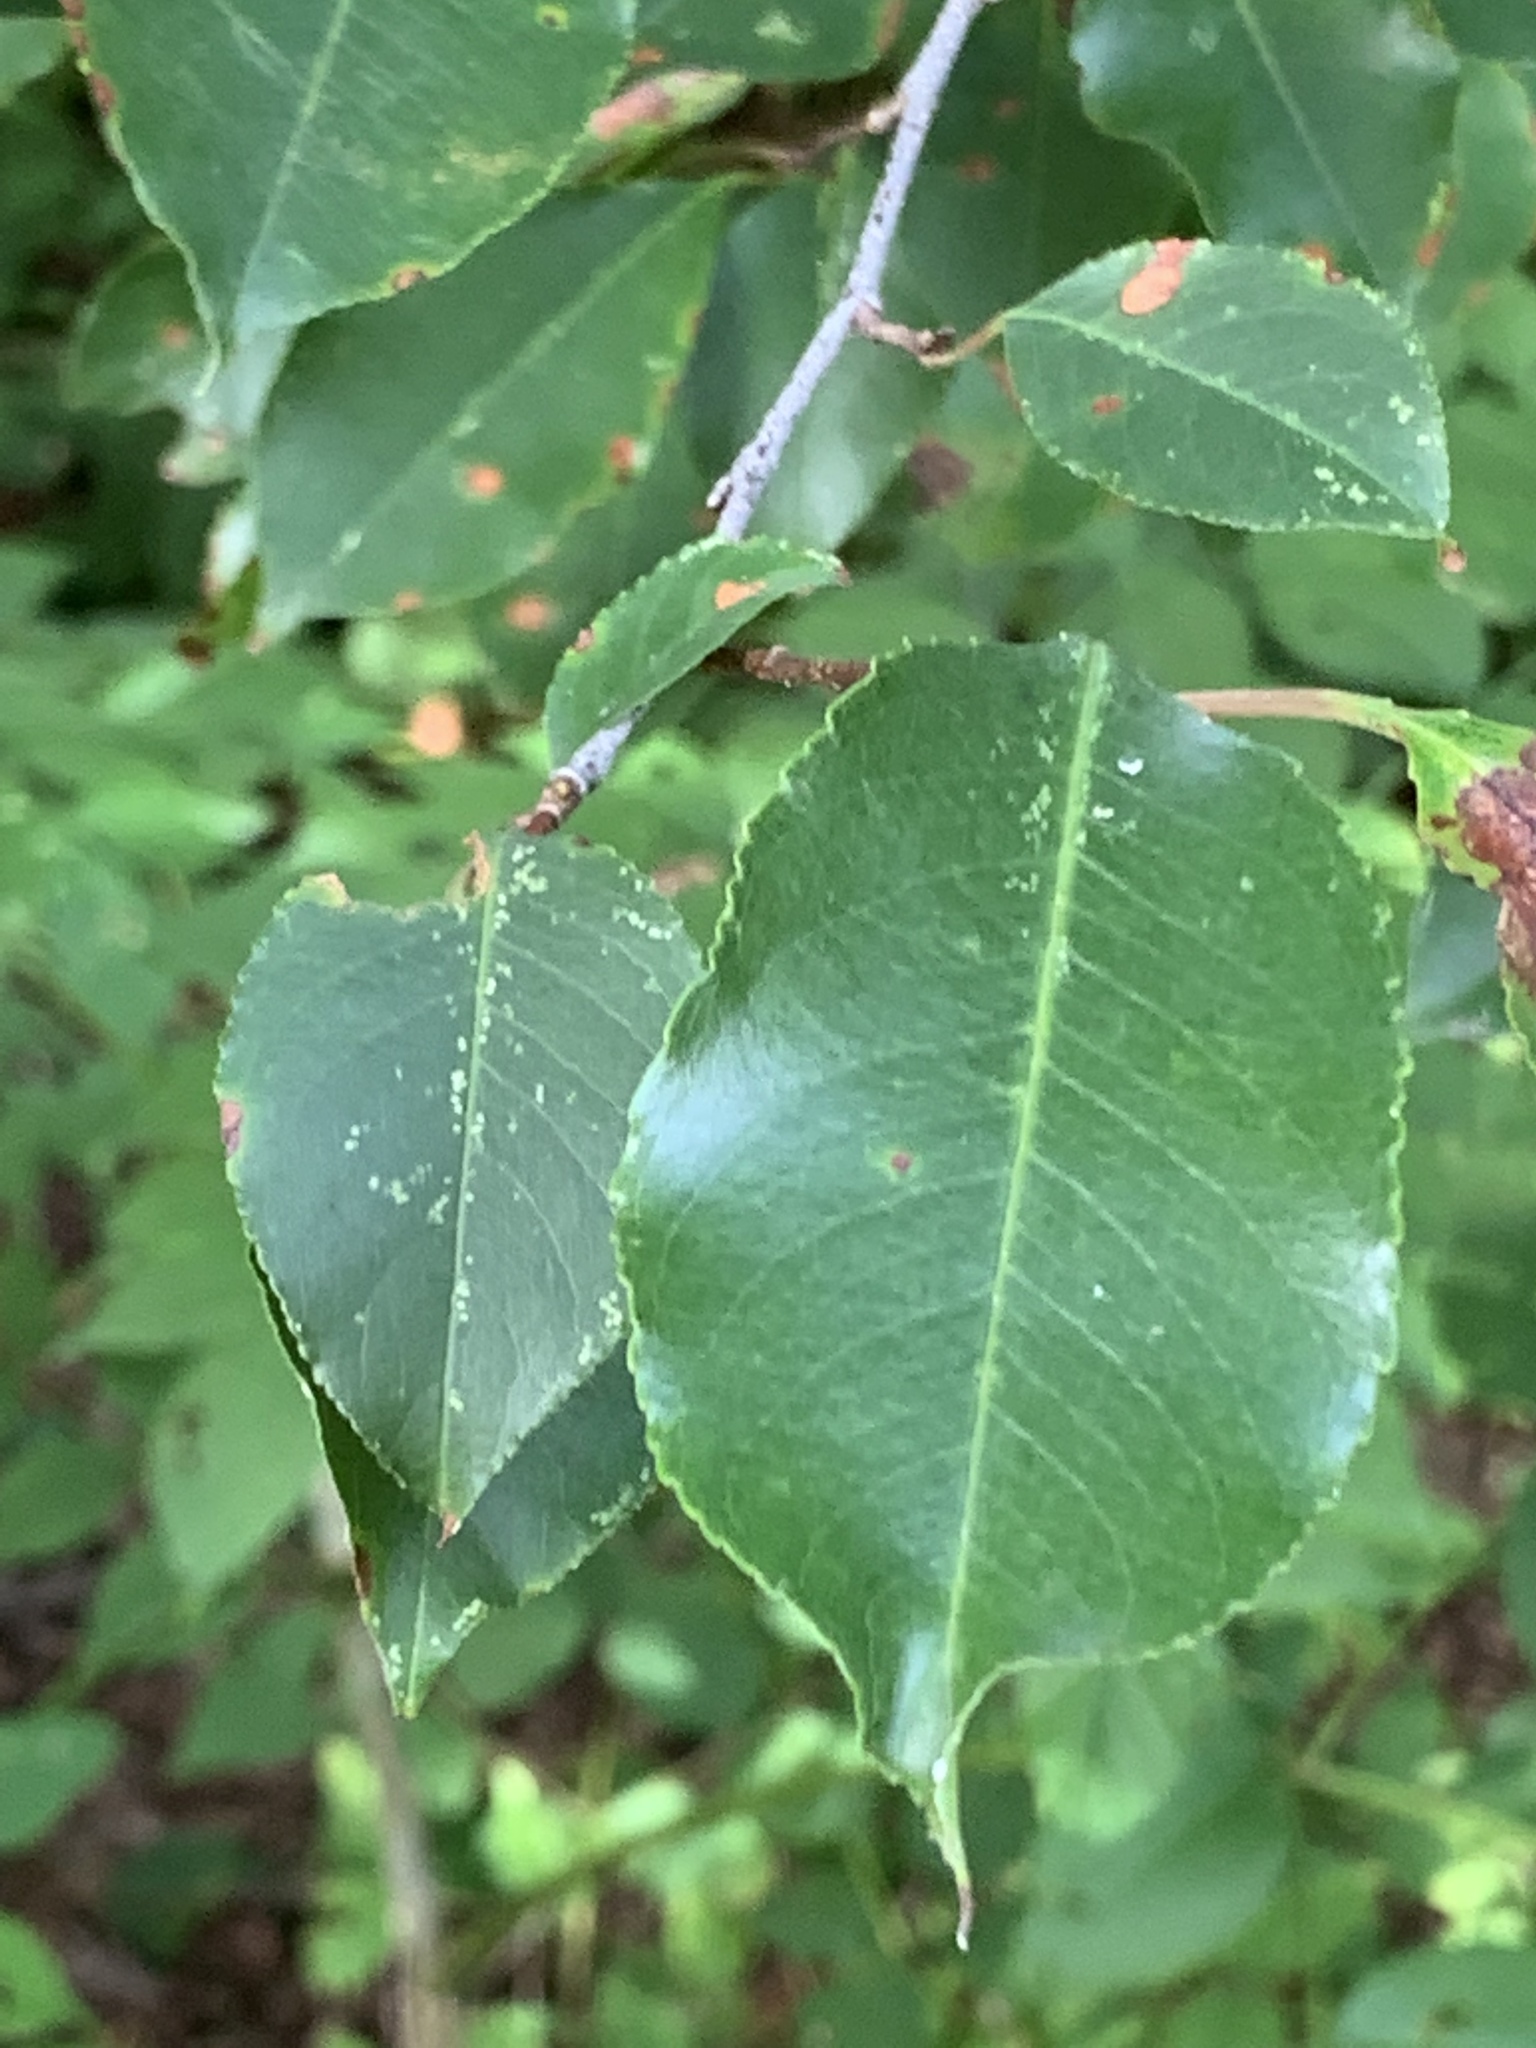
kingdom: Plantae
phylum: Tracheophyta
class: Magnoliopsida
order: Rosales
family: Rosaceae
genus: Prunus
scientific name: Prunus serotina
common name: Black cherry
